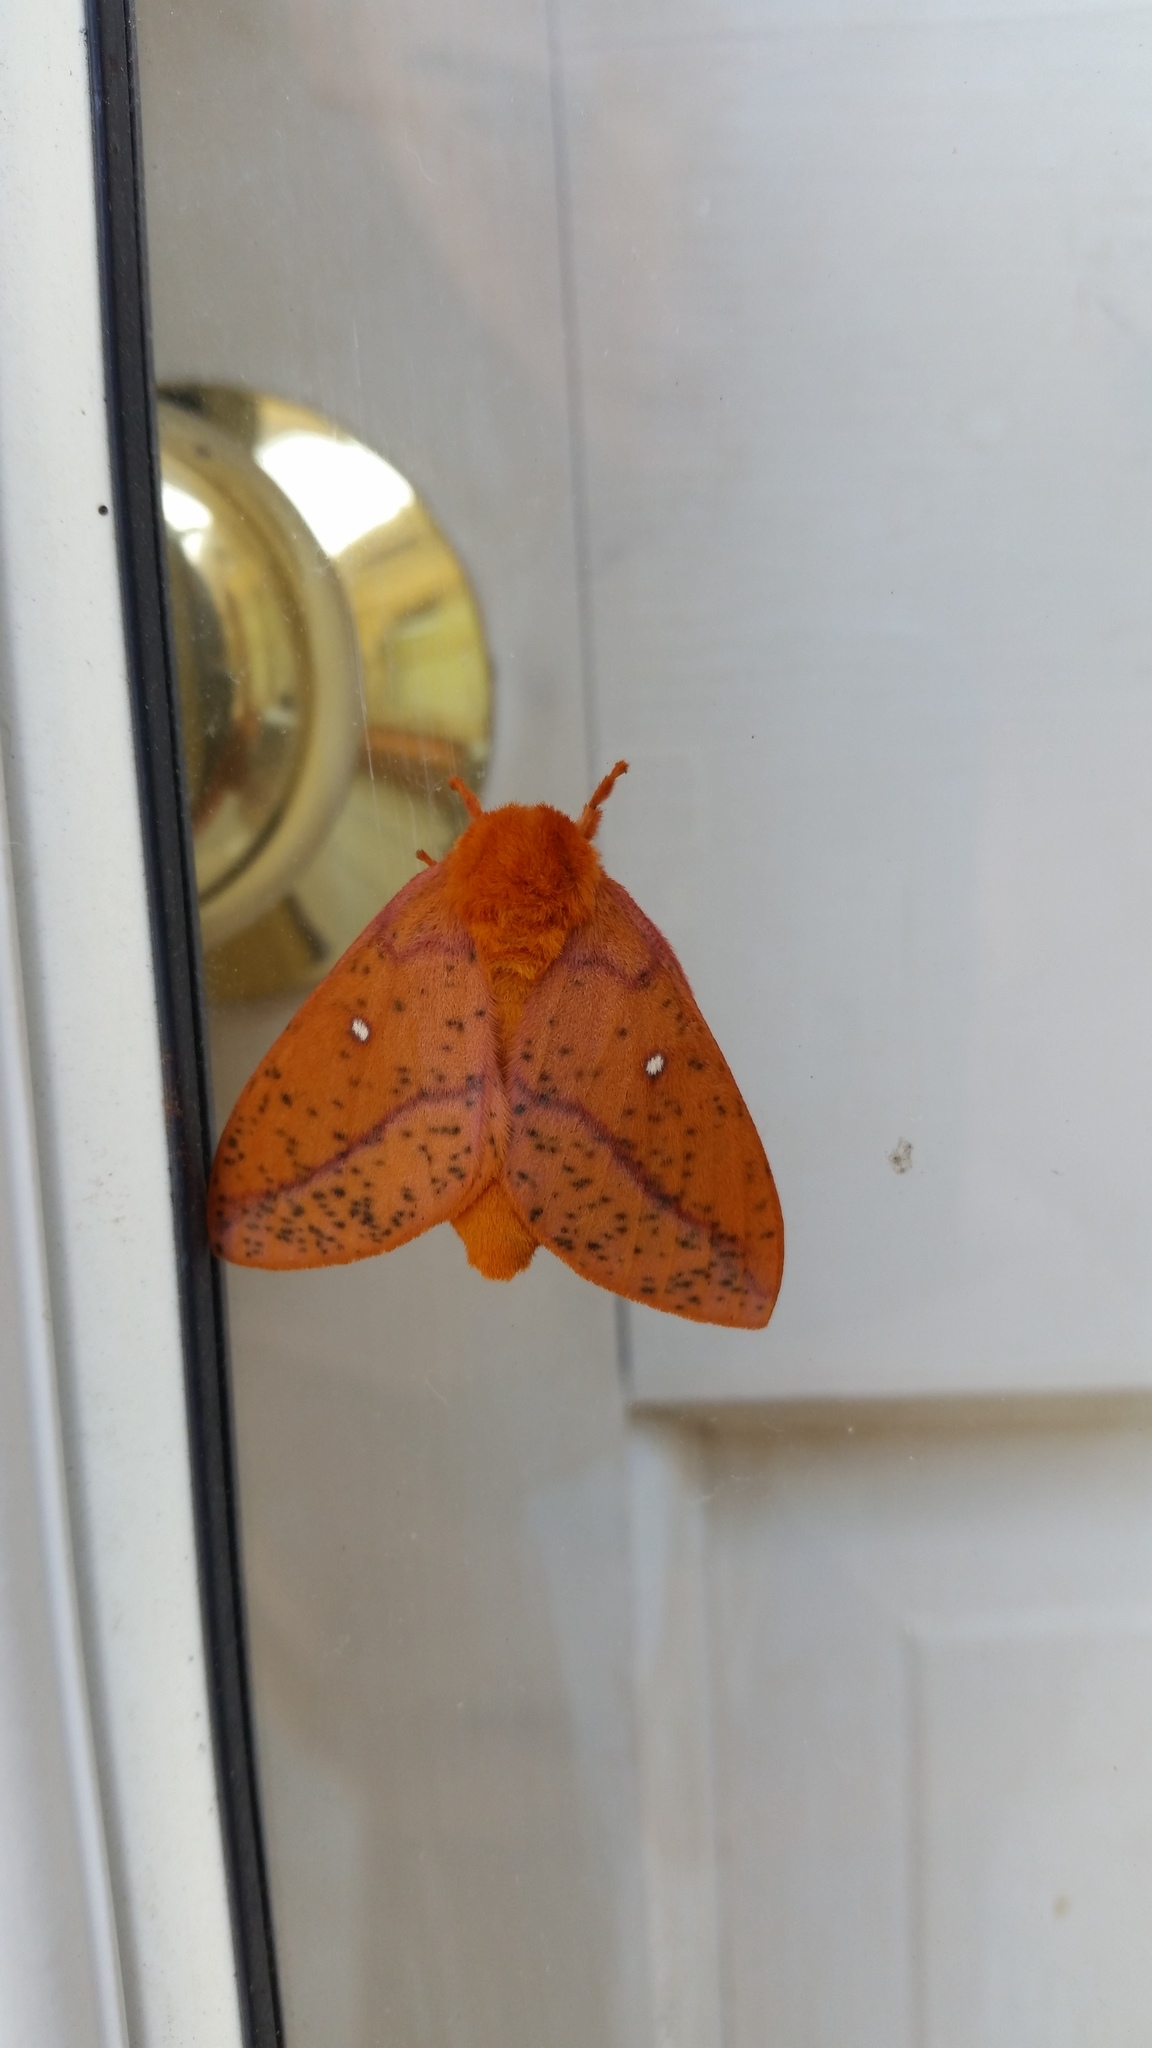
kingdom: Animalia
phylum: Arthropoda
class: Insecta
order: Lepidoptera
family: Saturniidae
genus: Anisota
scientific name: Anisota stigma
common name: Spiny oakworm moth
